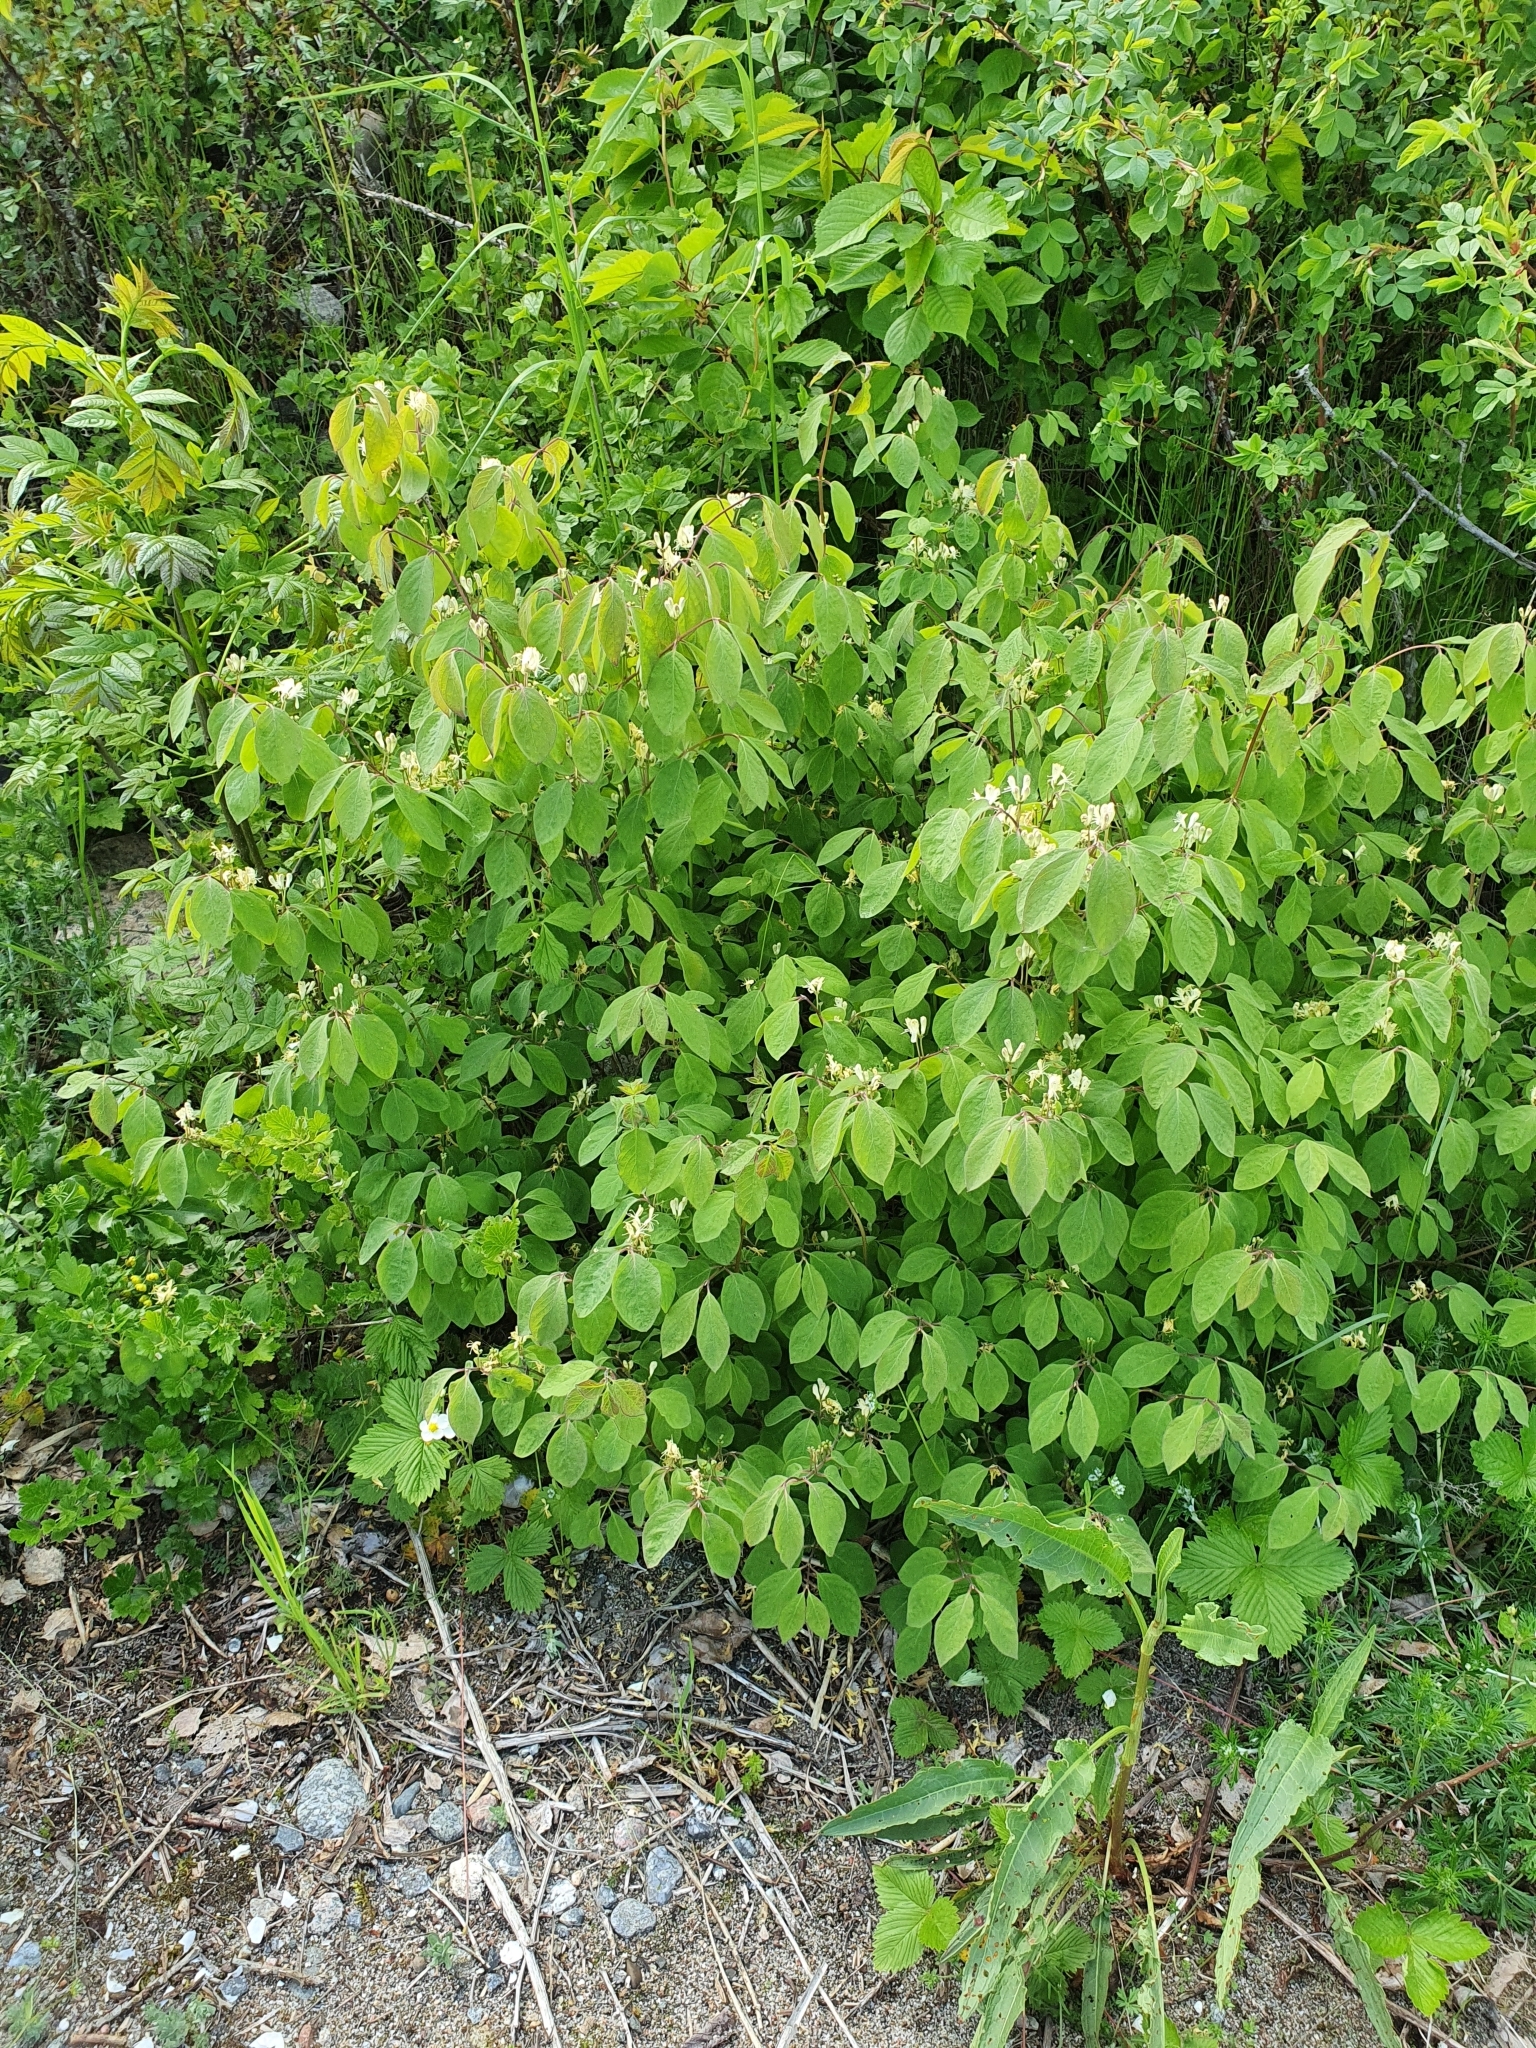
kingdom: Plantae
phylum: Tracheophyta
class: Magnoliopsida
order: Dipsacales
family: Caprifoliaceae
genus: Lonicera
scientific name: Lonicera xylosteum
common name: Fly honeysuckle
